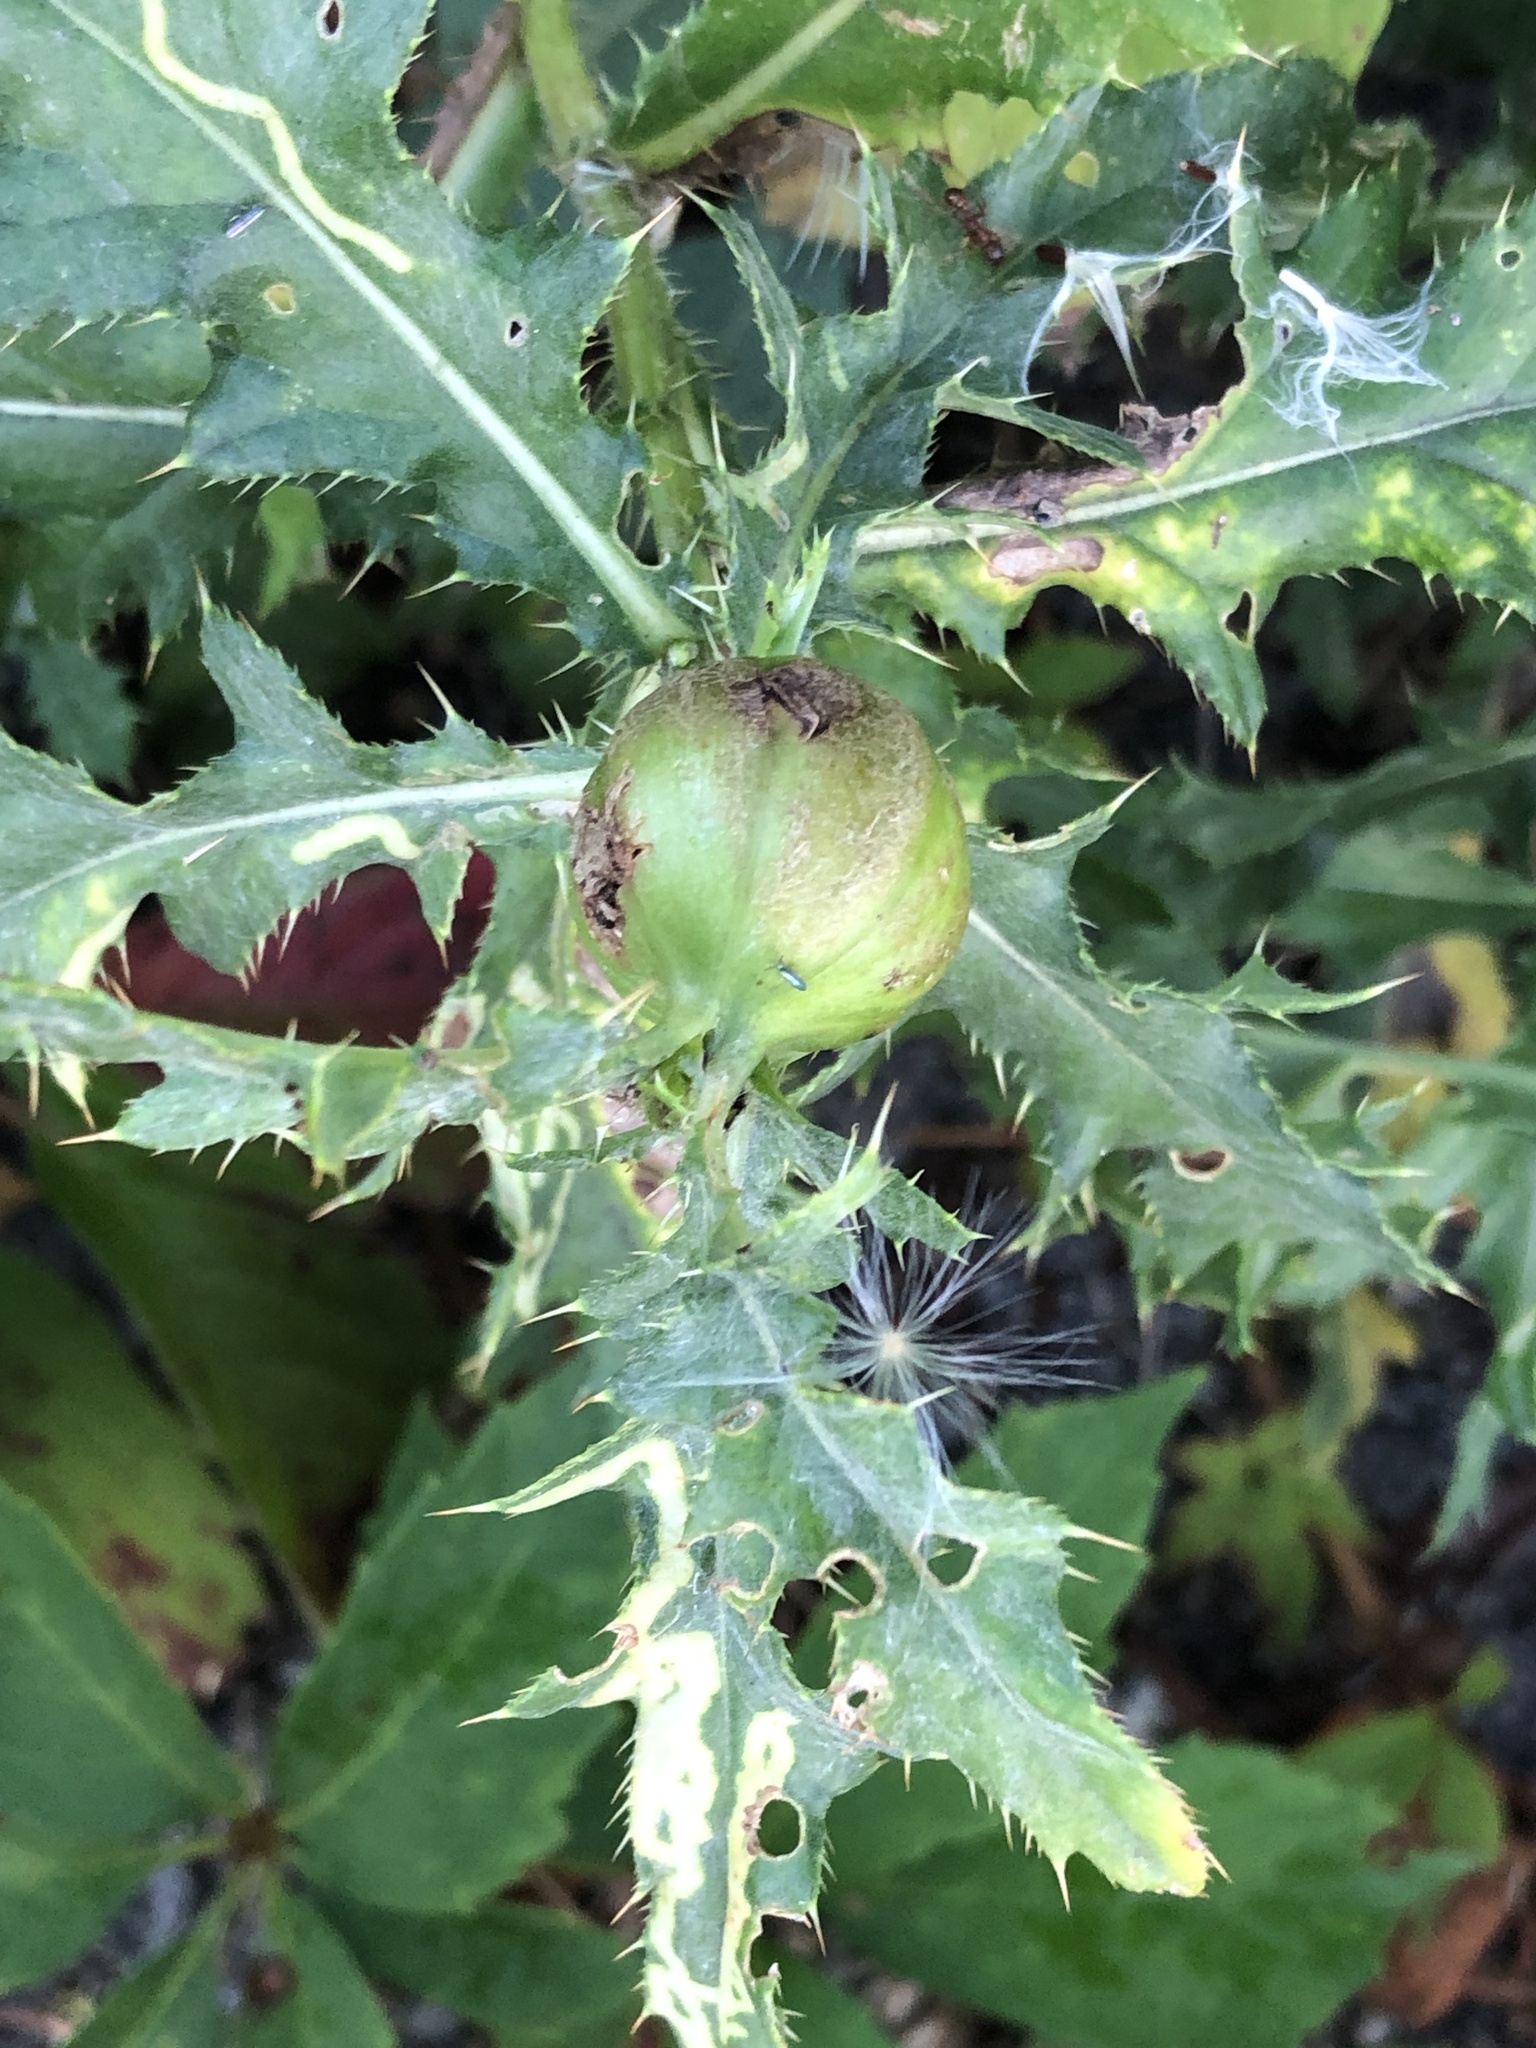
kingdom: Animalia
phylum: Arthropoda
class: Insecta
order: Diptera
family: Tephritidae
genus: Urophora
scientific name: Urophora cardui
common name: Fruit fly
